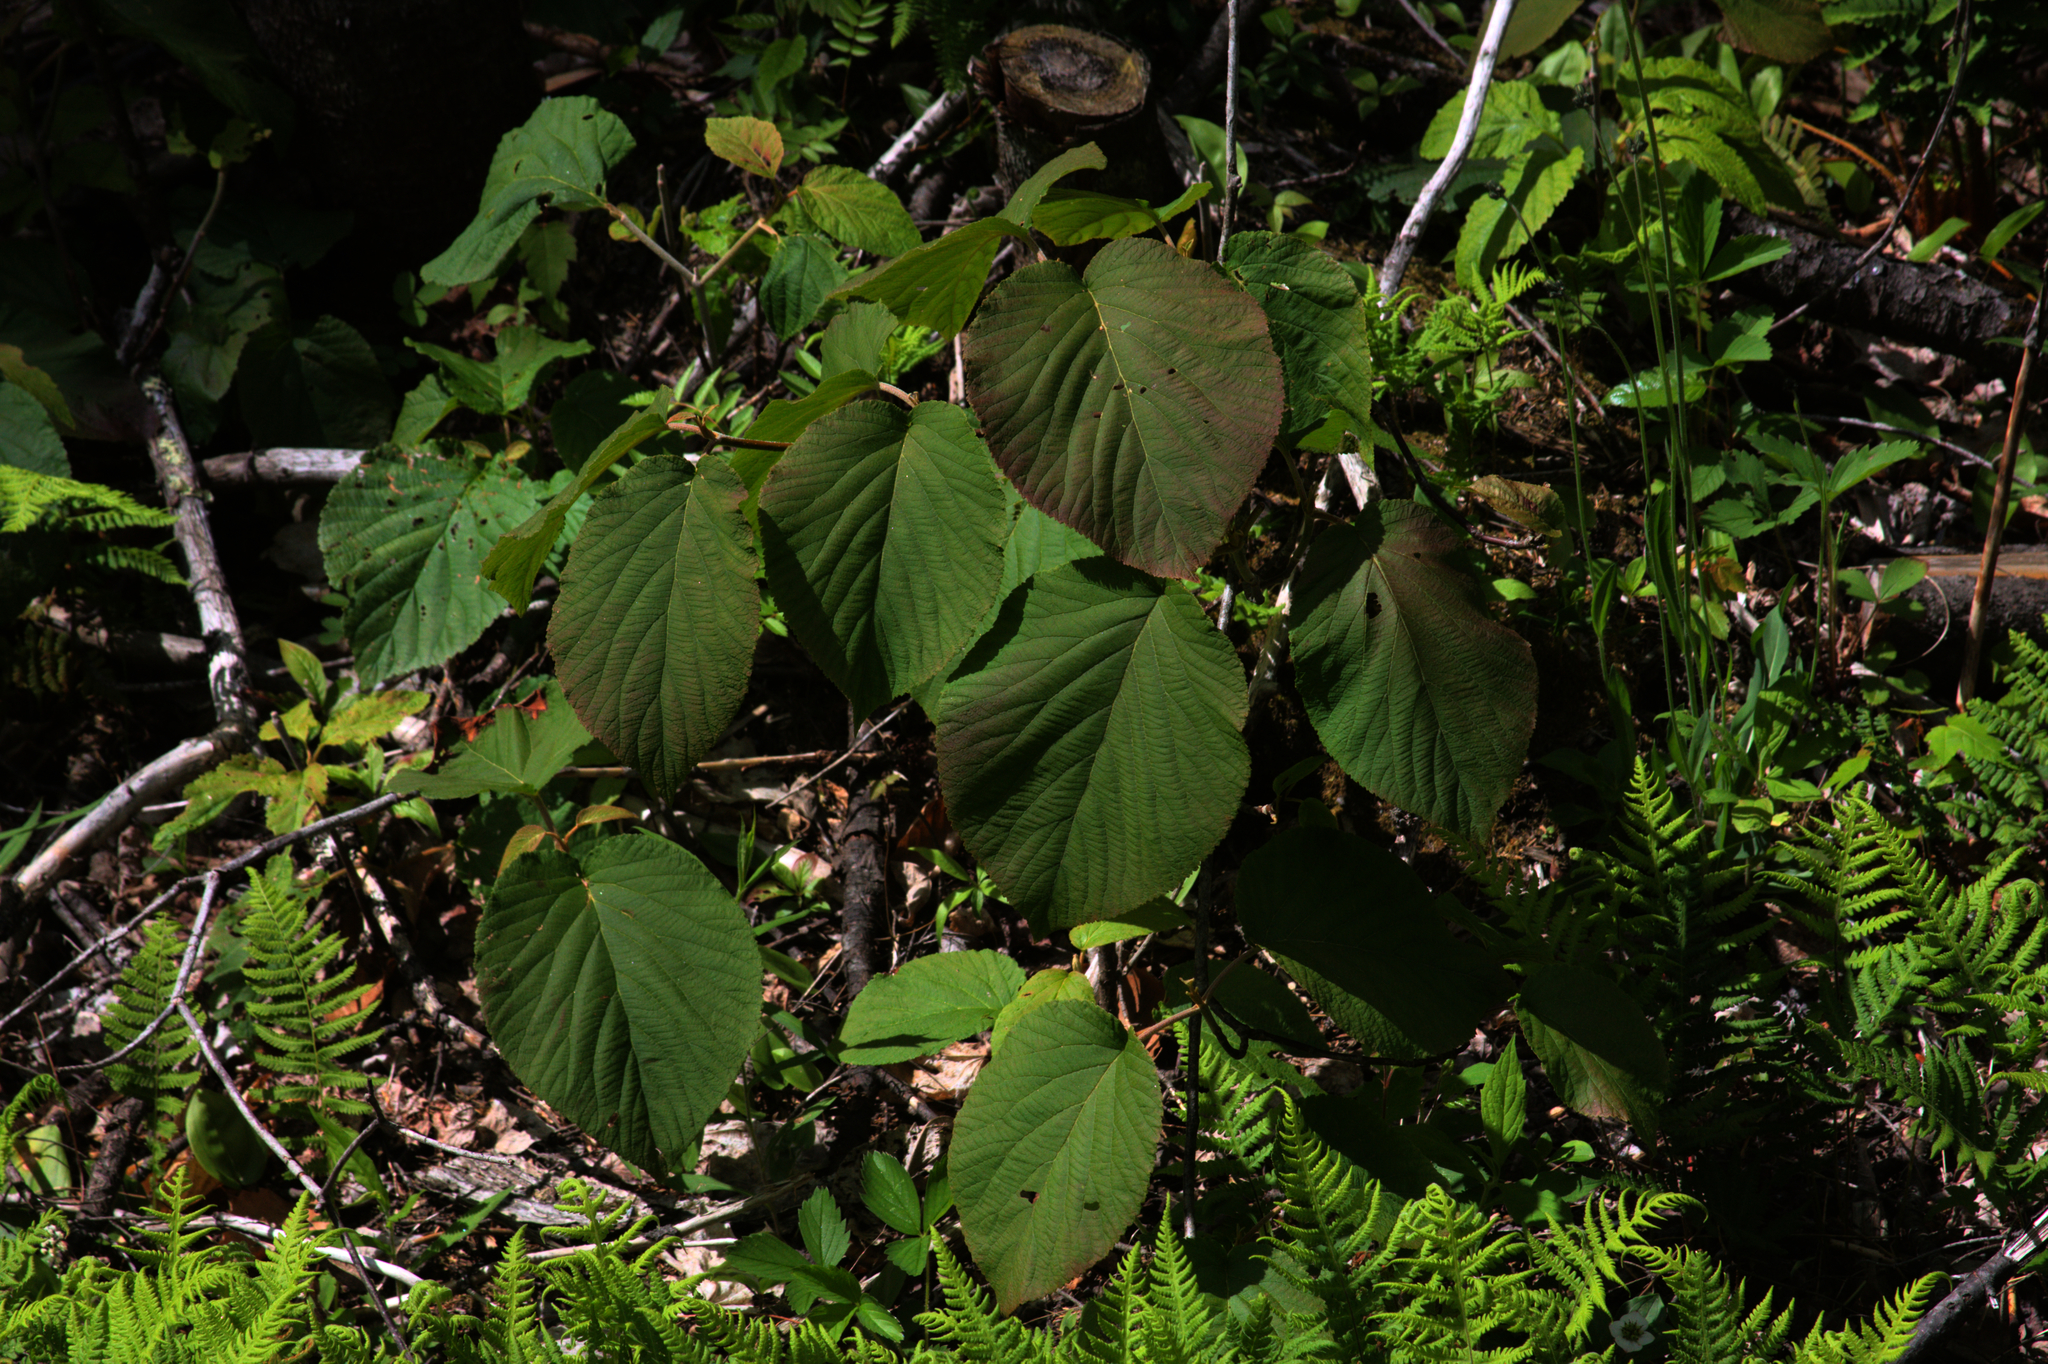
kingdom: Plantae
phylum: Tracheophyta
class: Magnoliopsida
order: Dipsacales
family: Viburnaceae
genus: Viburnum
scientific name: Viburnum lantanoides
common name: Hobblebush
